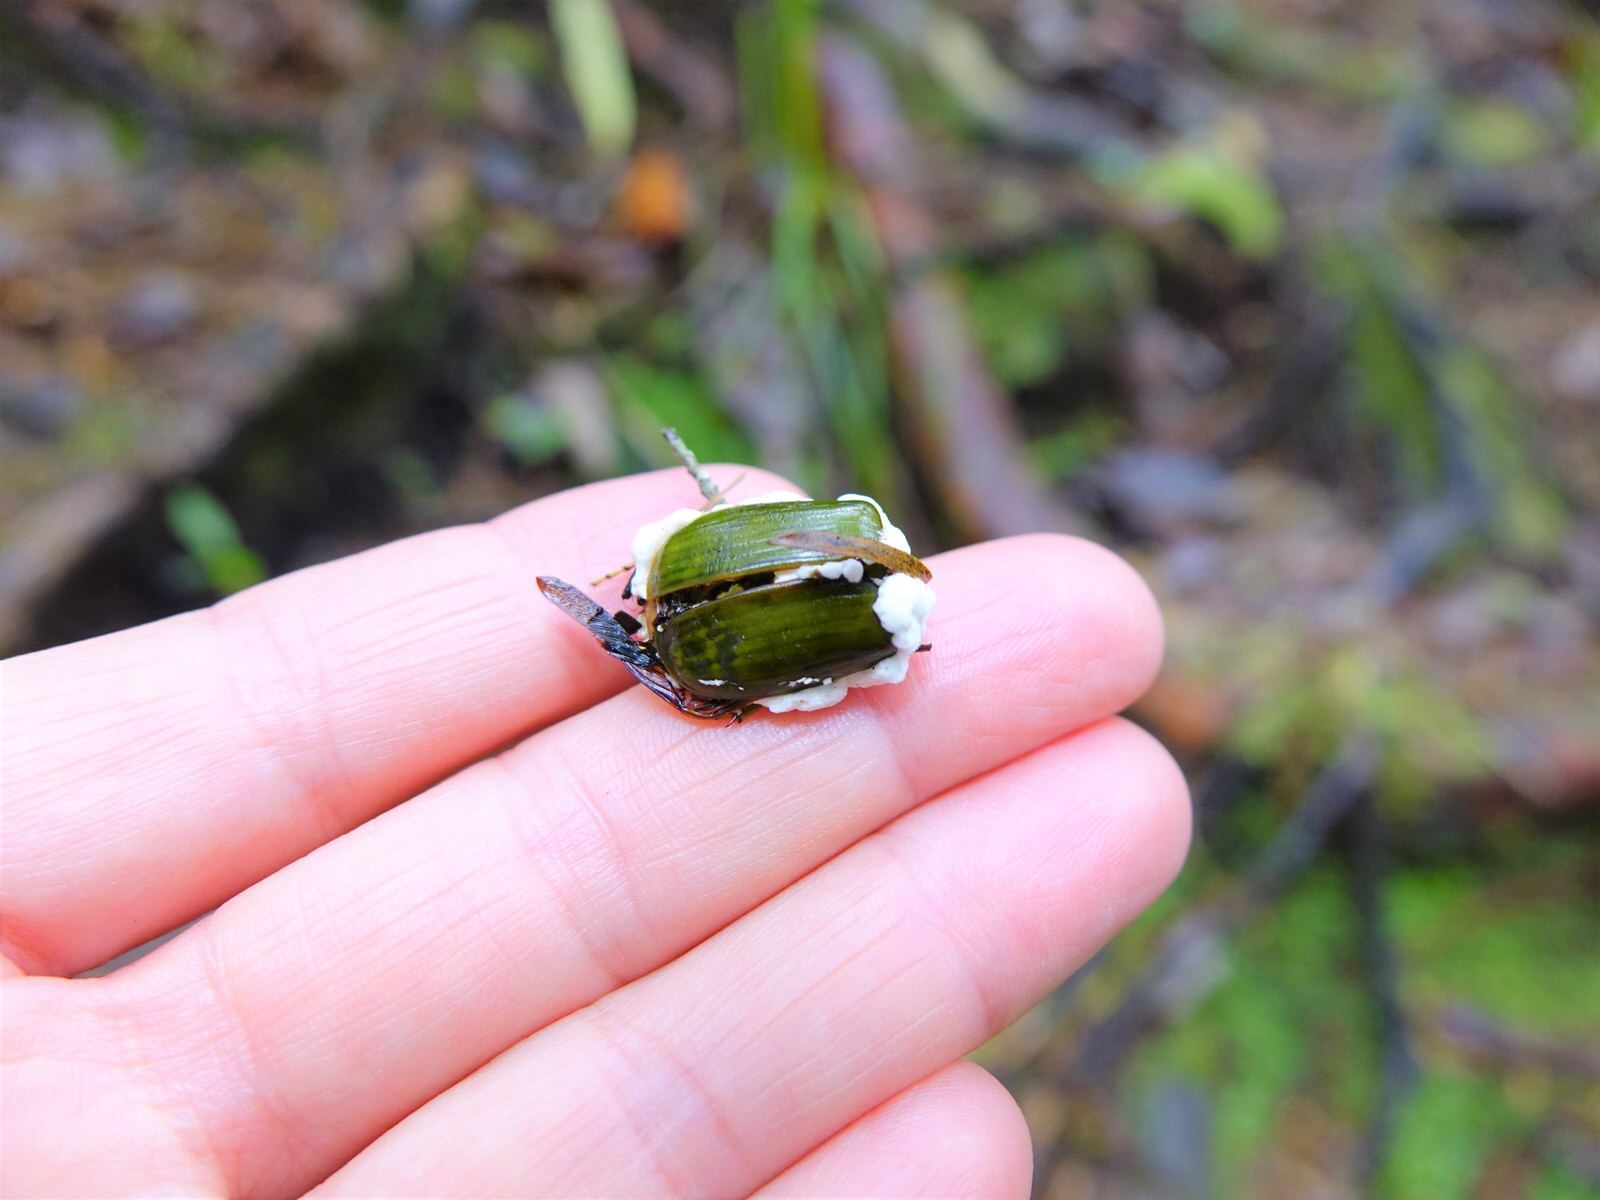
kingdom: Animalia
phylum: Arthropoda
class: Insecta
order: Coleoptera
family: Scarabaeidae
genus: Stethaspis
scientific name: Stethaspis longicornis
